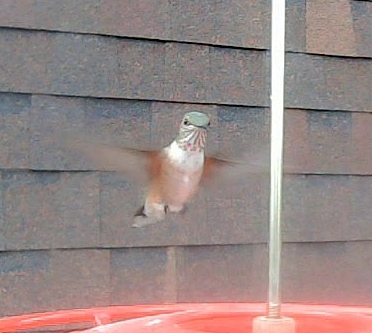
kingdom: Animalia
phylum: Chordata
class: Aves
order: Apodiformes
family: Trochilidae
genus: Selasphorus
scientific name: Selasphorus platycercus
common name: Broad-tailed hummingbird
